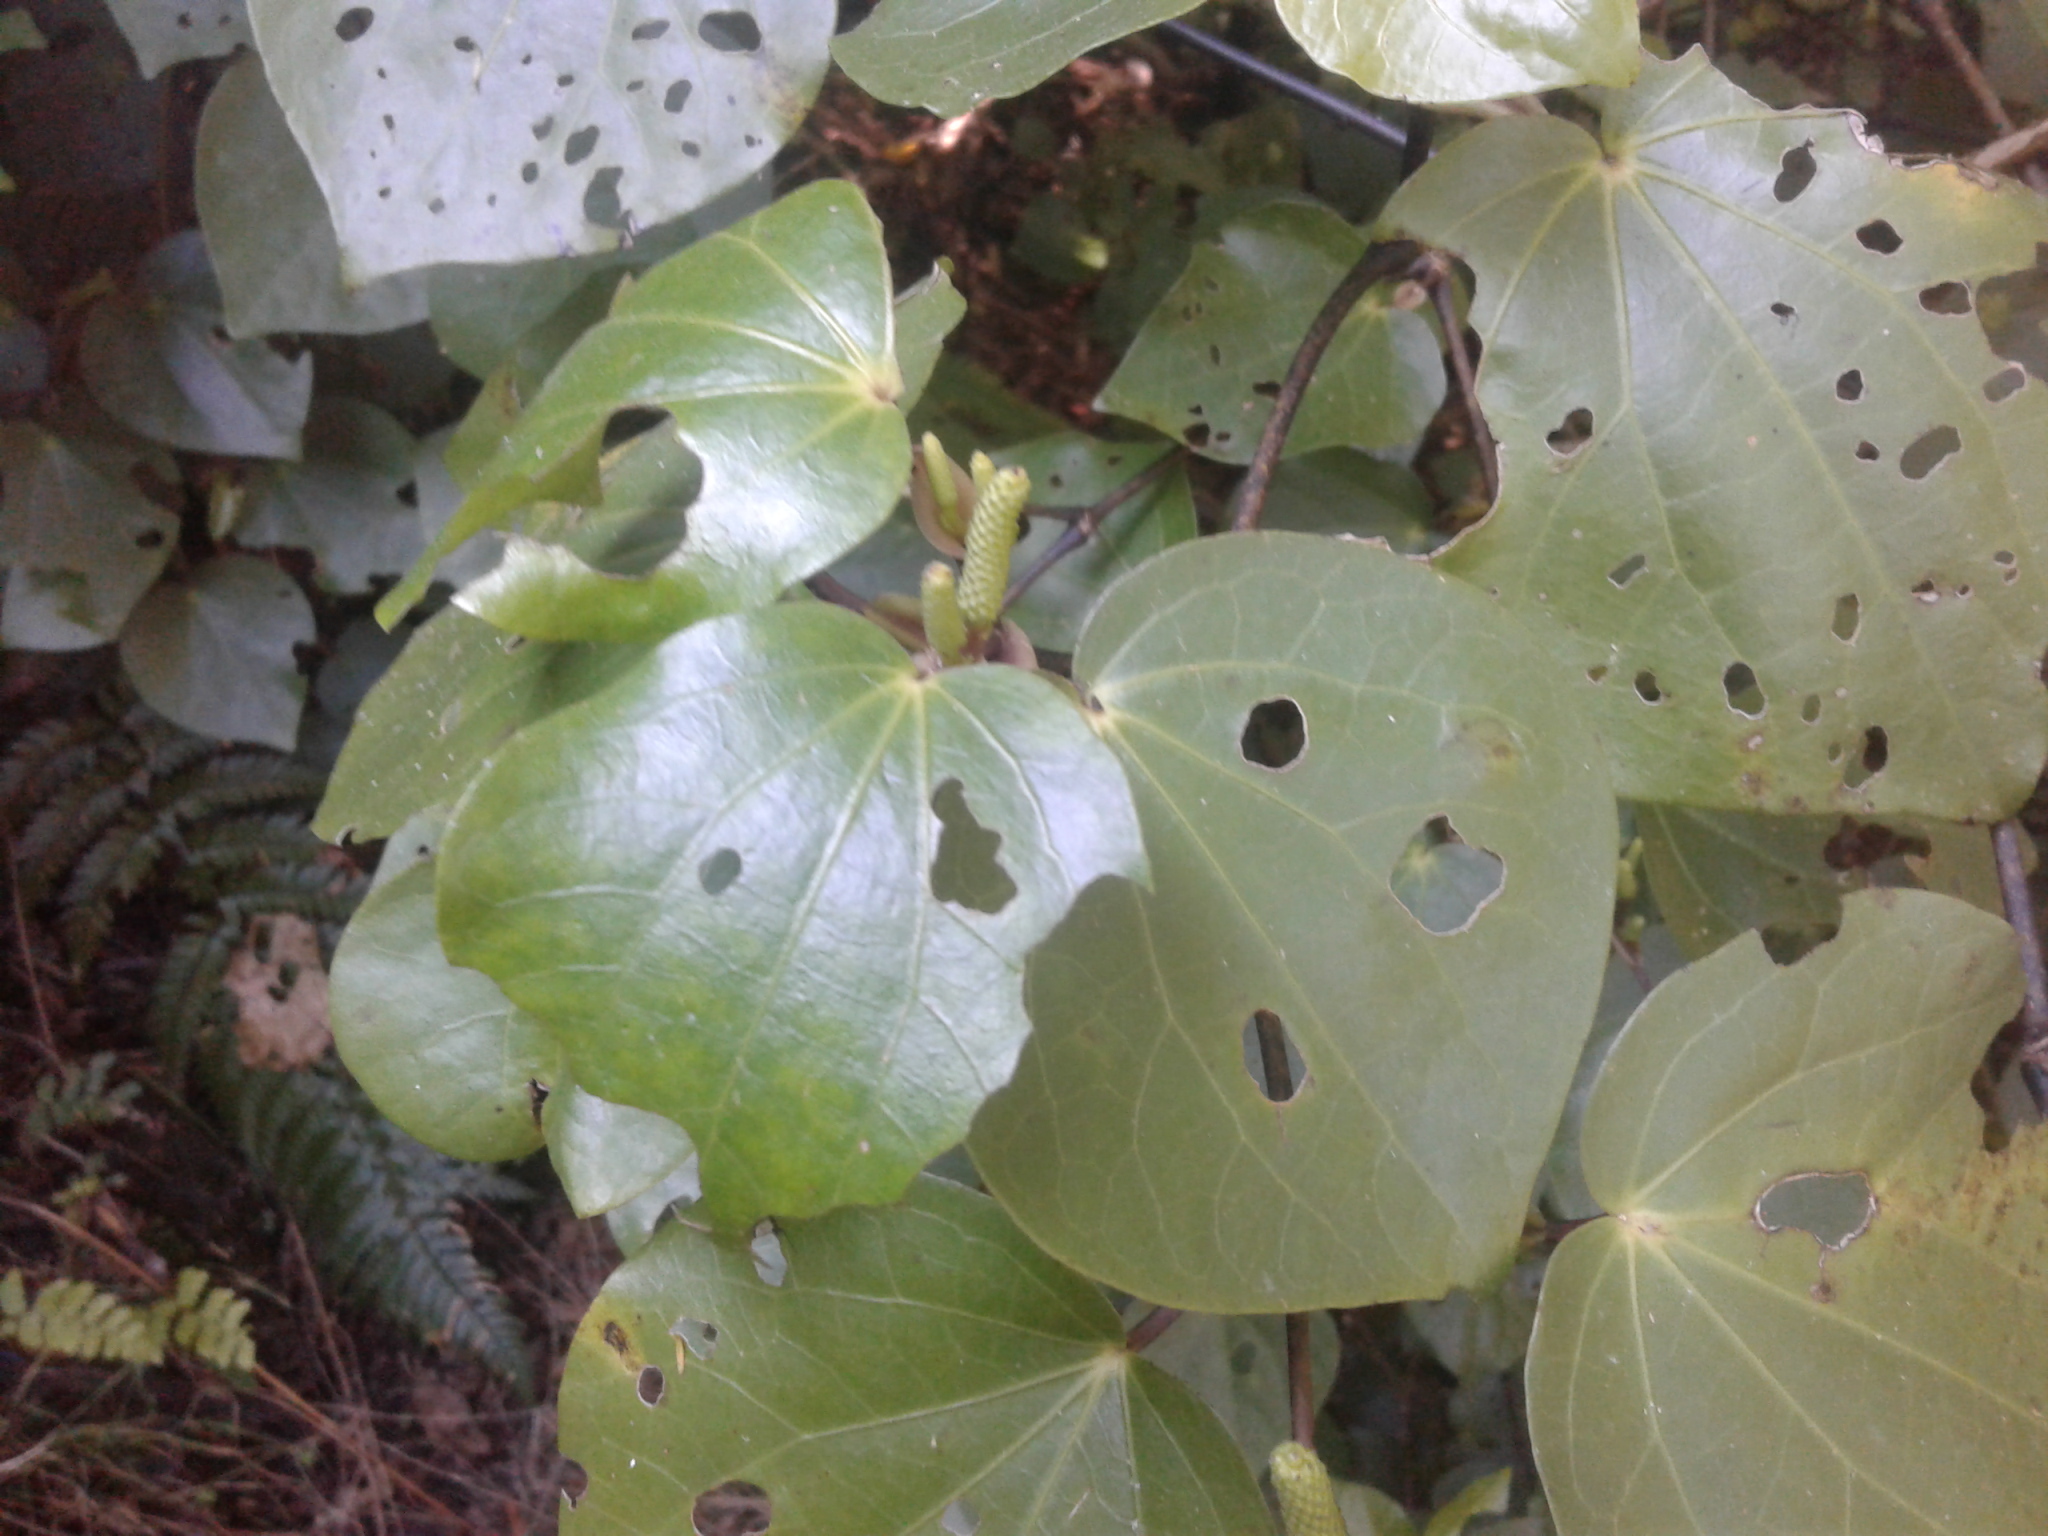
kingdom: Plantae
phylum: Tracheophyta
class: Magnoliopsida
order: Piperales
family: Piperaceae
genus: Macropiper
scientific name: Macropiper excelsum
